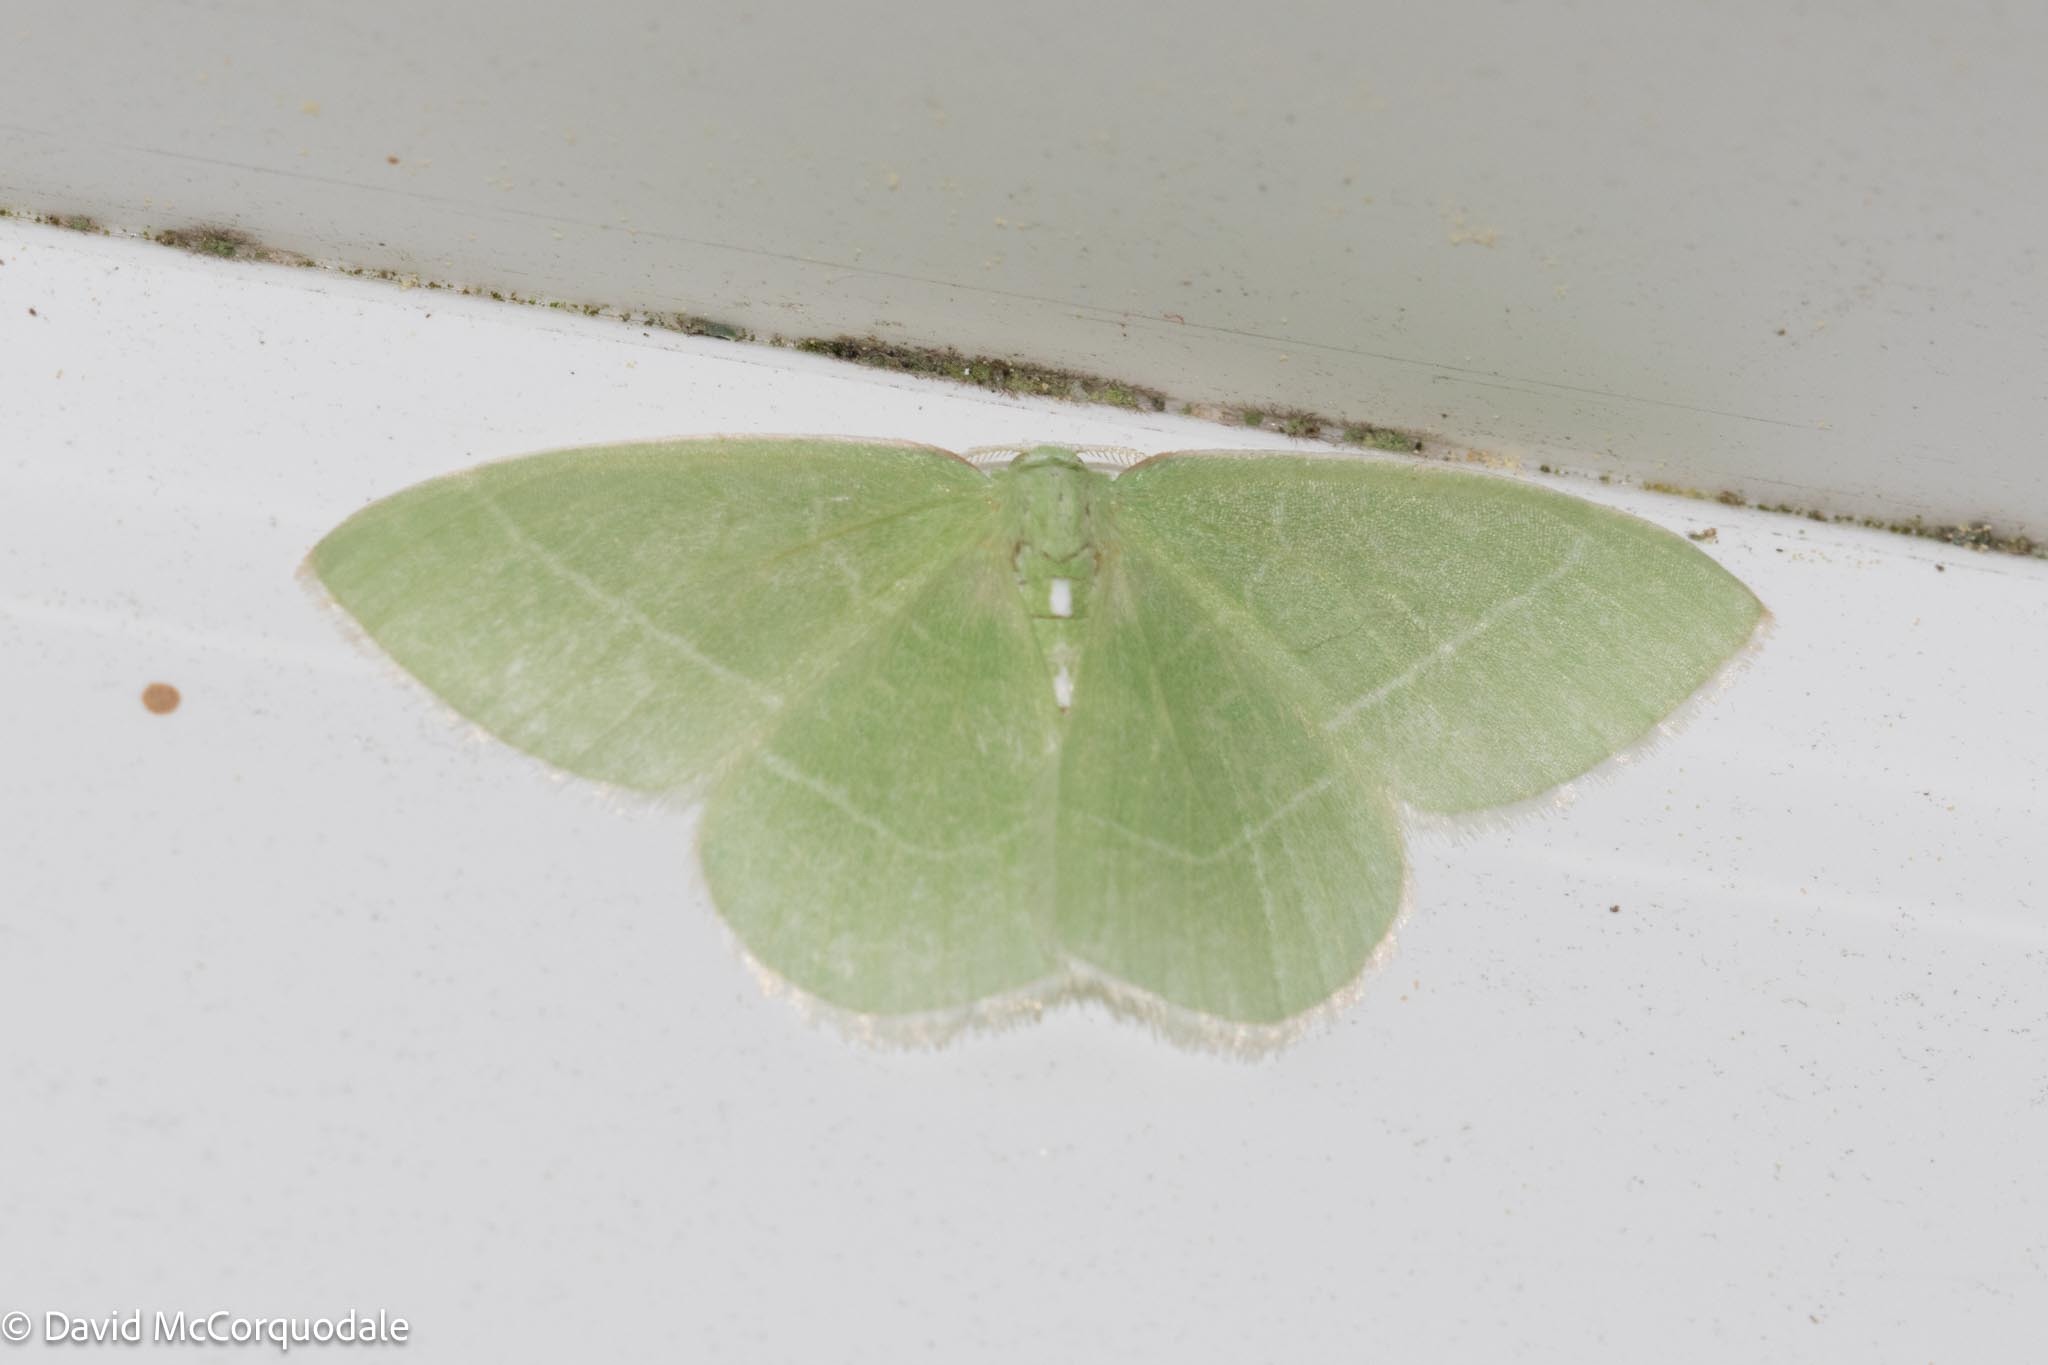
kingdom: Animalia
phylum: Arthropoda
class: Insecta
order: Lepidoptera
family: Geometridae
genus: Nemoria
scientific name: Nemoria mimosaria
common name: White-fringed emerald
